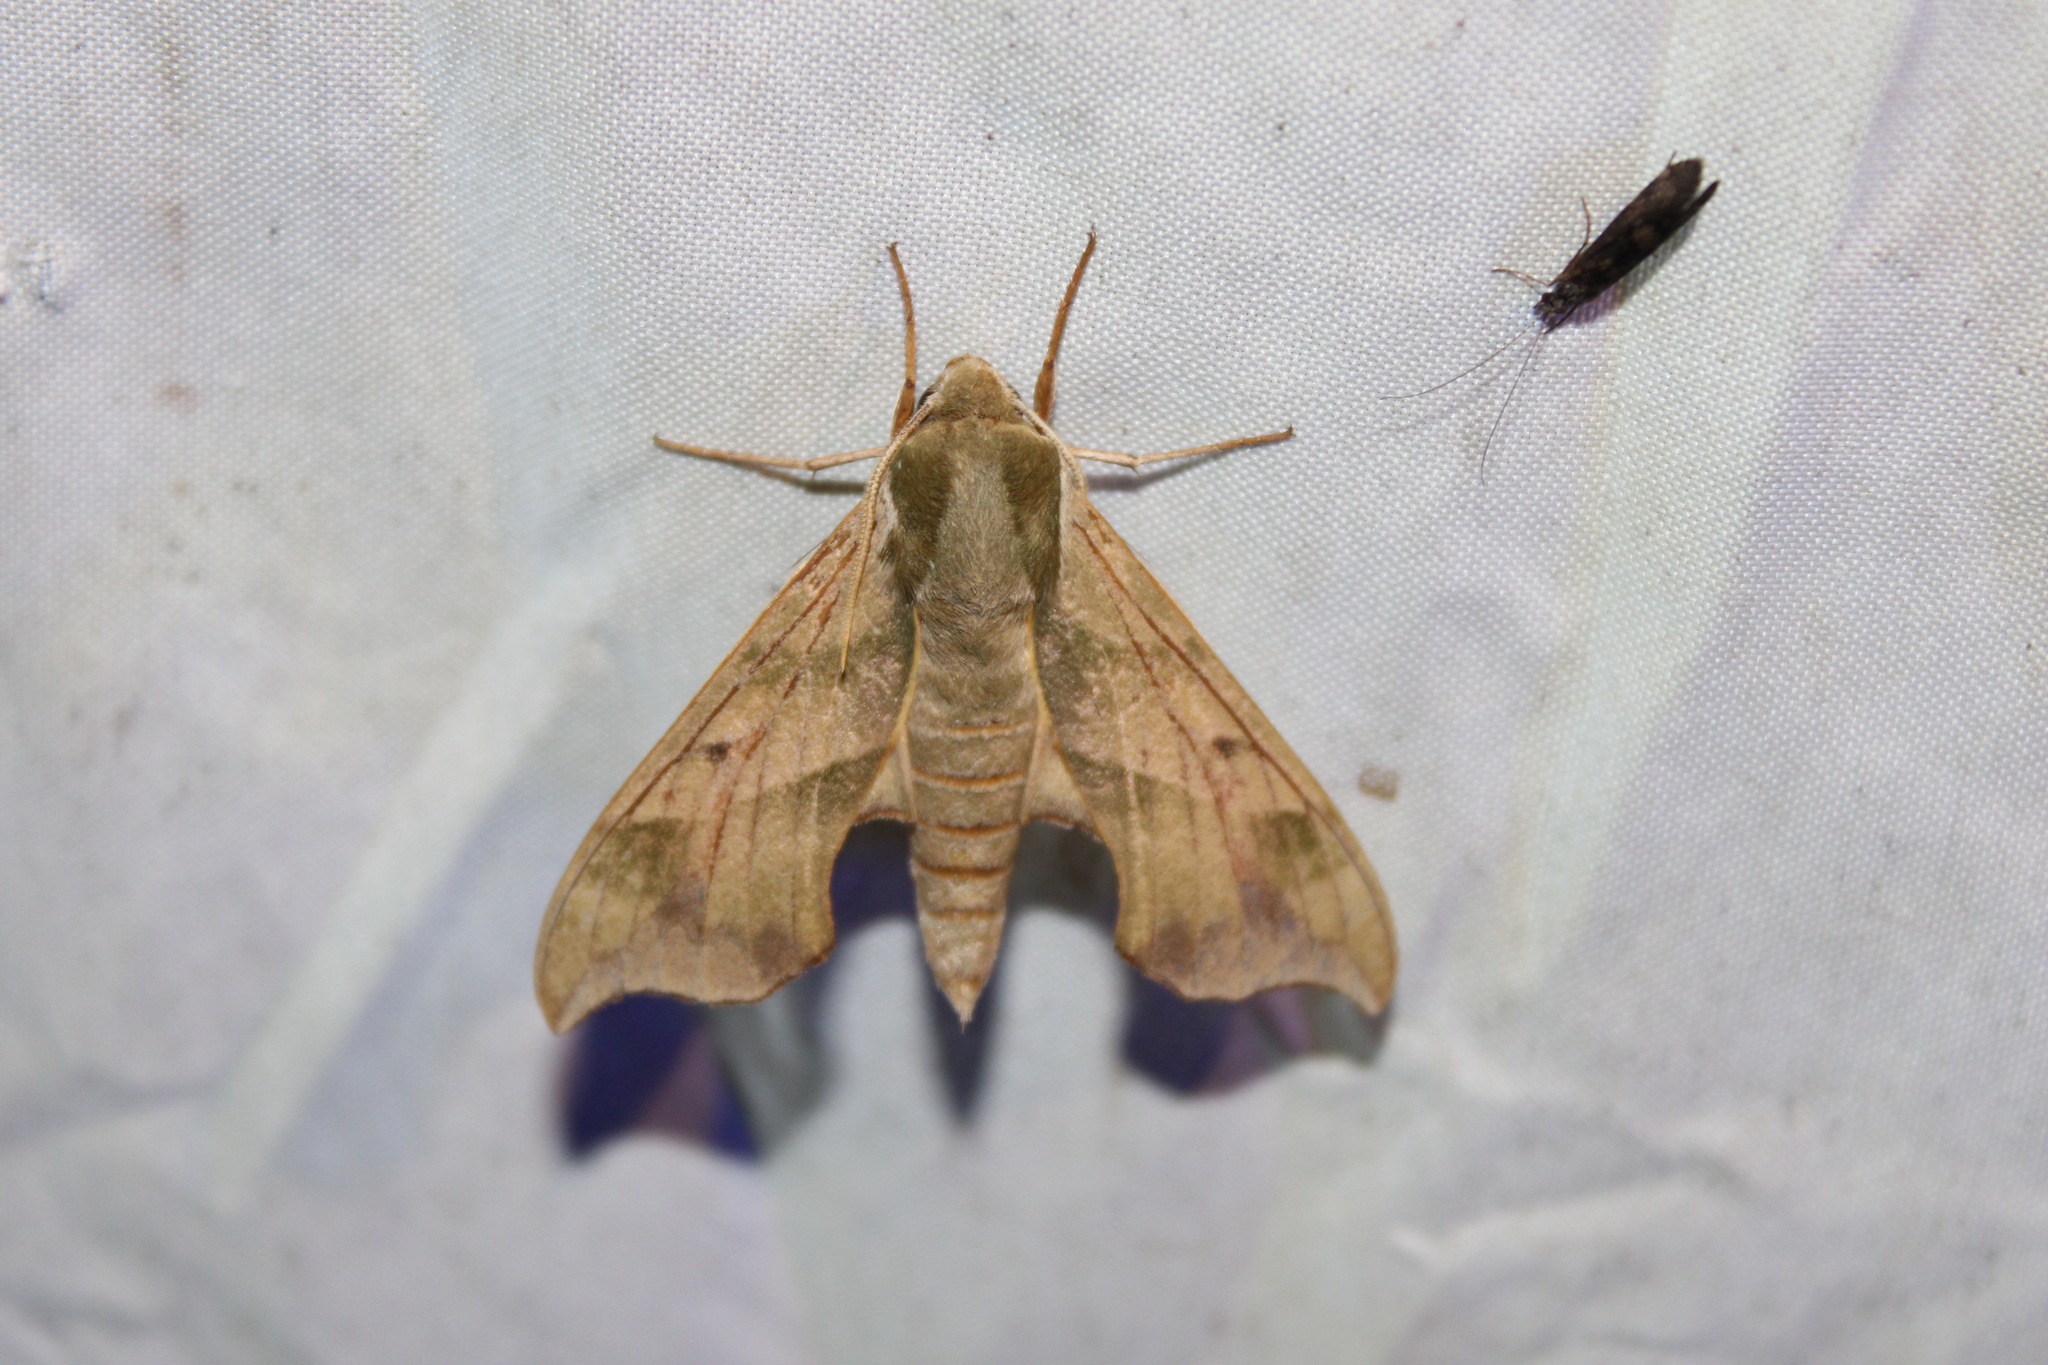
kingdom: Animalia
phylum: Arthropoda
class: Insecta
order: Lepidoptera
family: Sphingidae
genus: Darapsa
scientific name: Darapsa myron
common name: Hog sphinx
